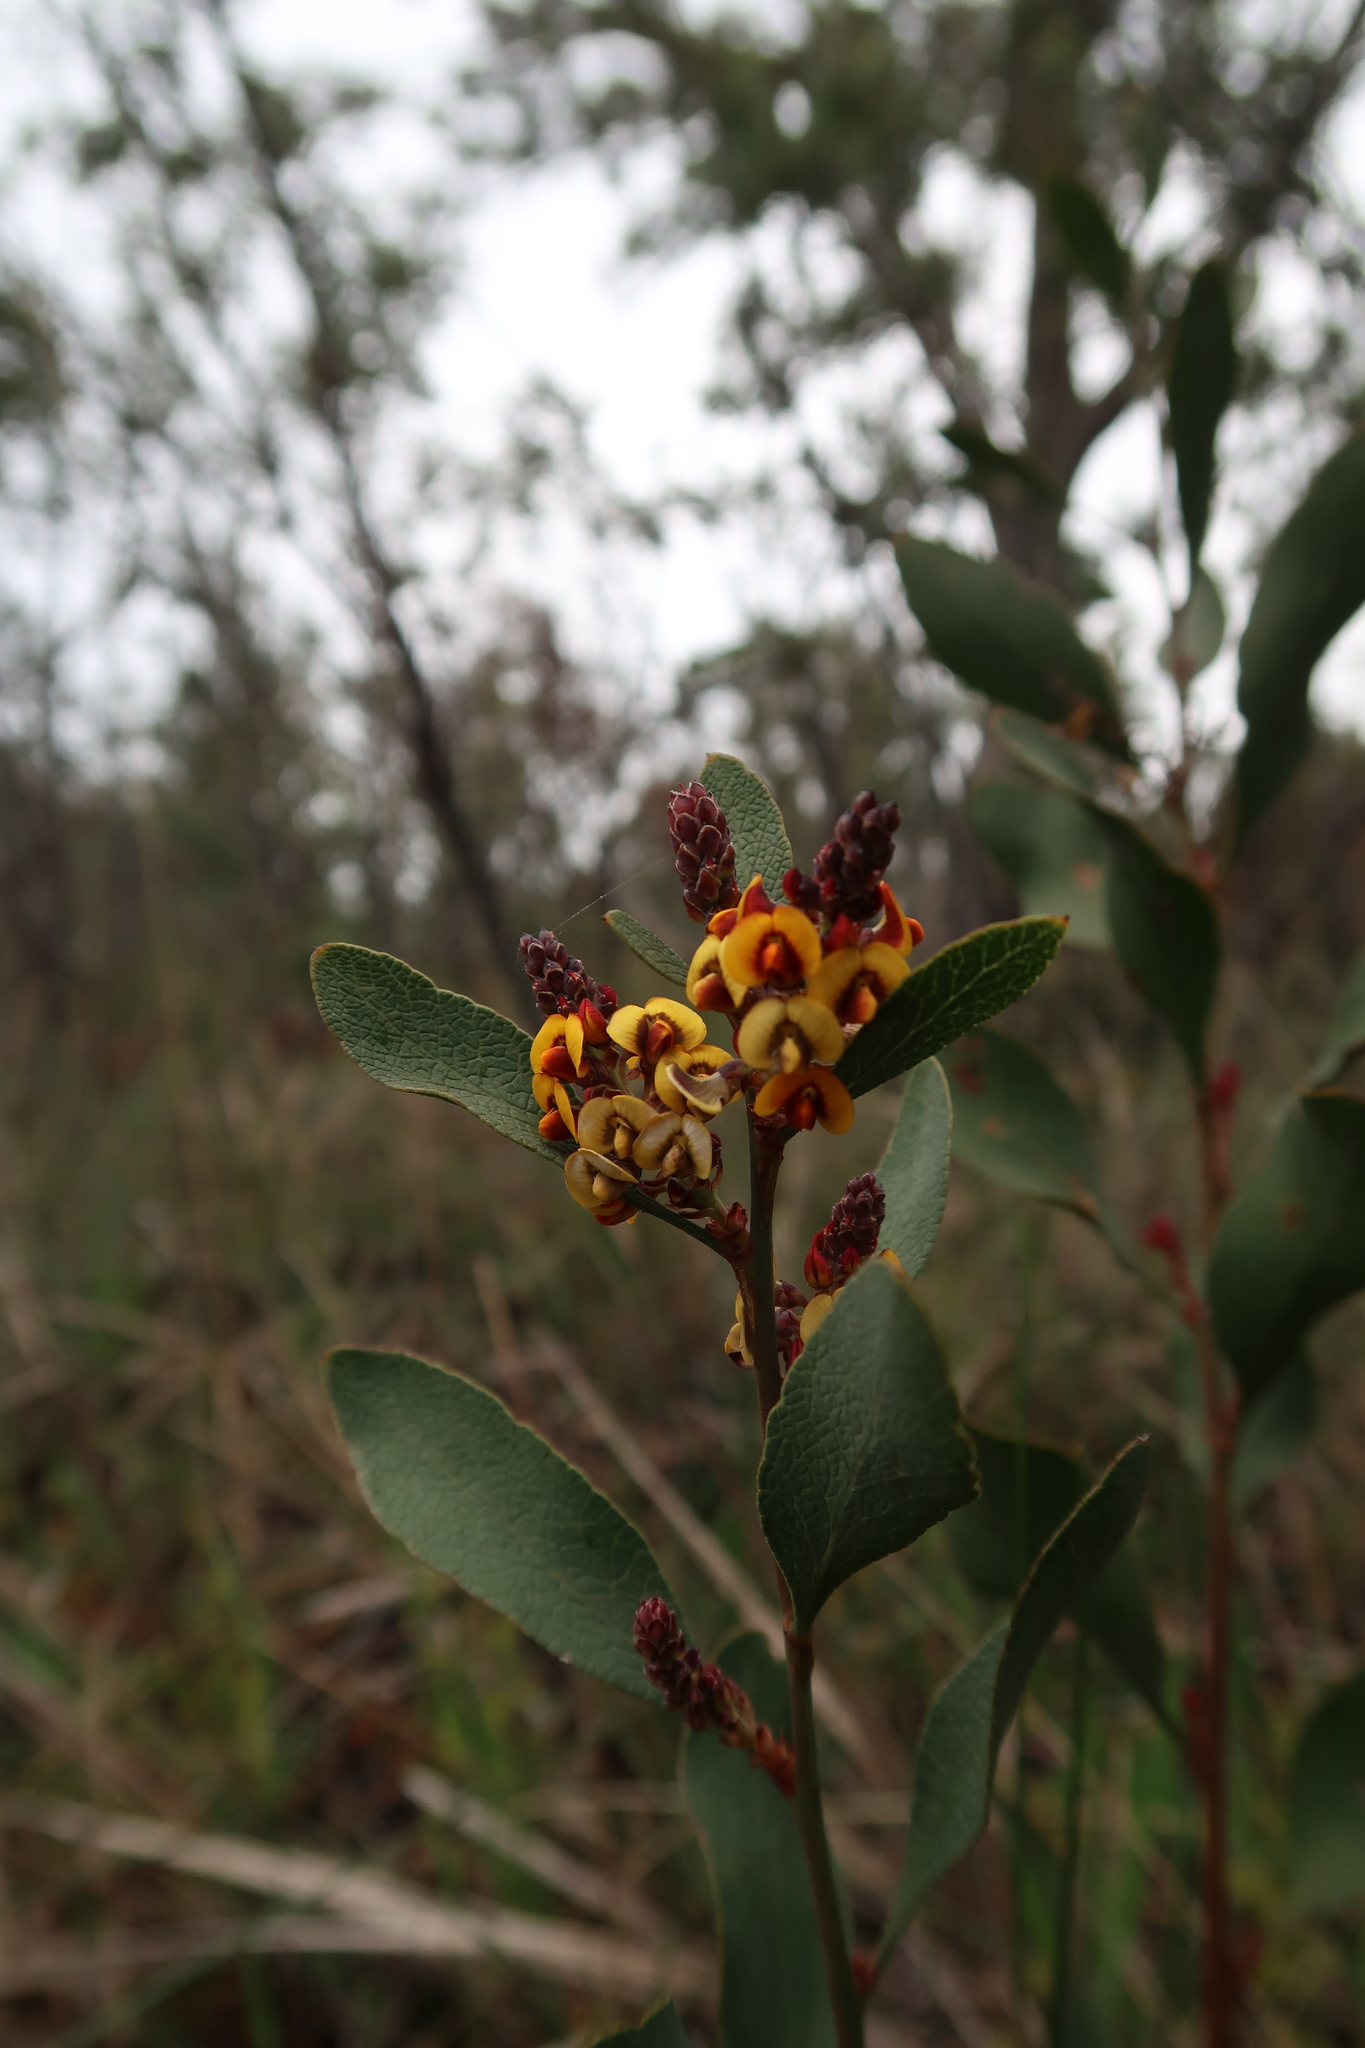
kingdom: Plantae
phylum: Tracheophyta
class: Magnoliopsida
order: Fabales
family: Fabaceae
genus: Daviesia
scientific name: Daviesia latifolia
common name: Hop bitter-pea
